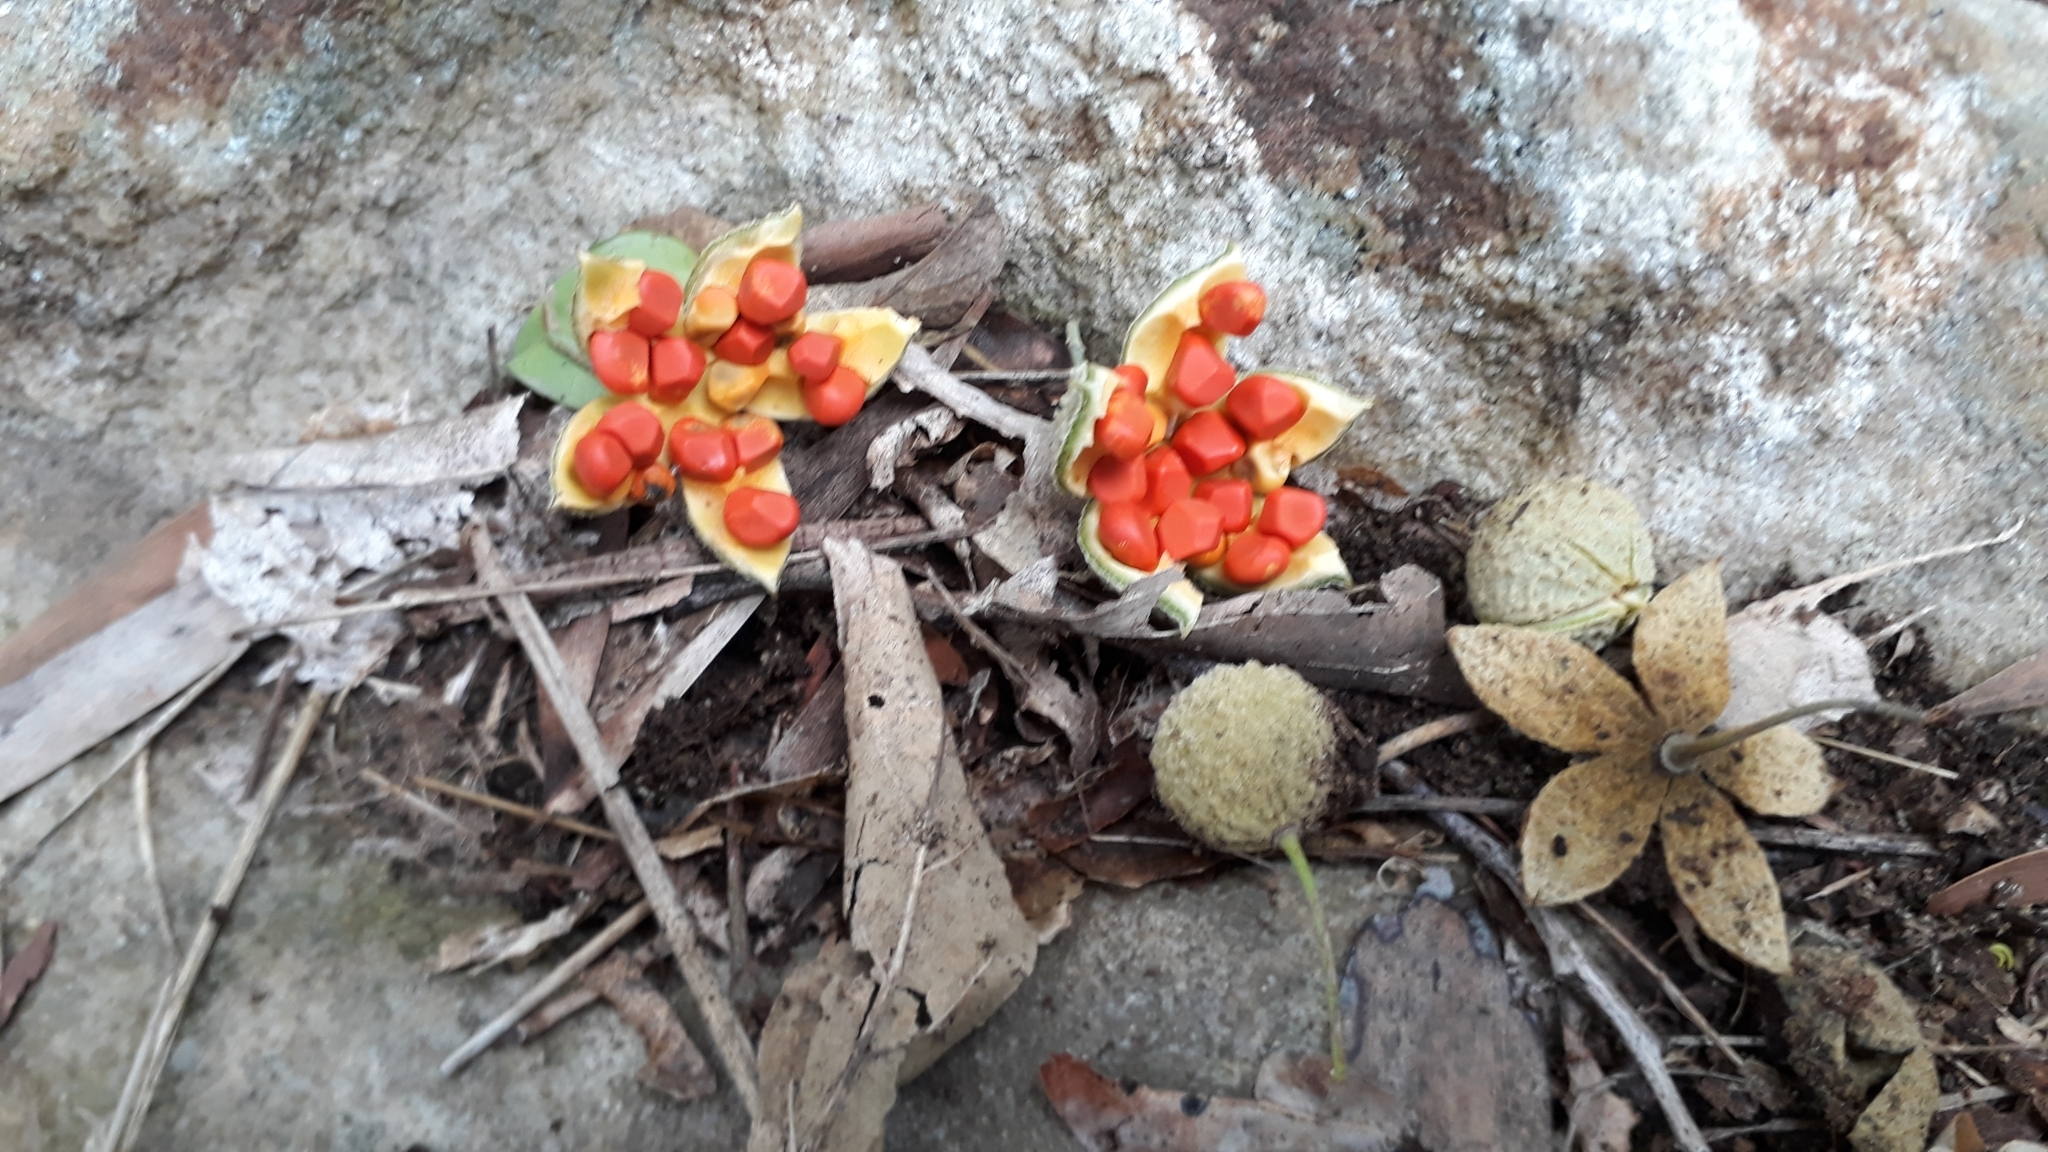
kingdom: Plantae
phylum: Tracheophyta
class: Magnoliopsida
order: Malpighiales
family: Achariaceae
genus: Kiggelaria
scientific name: Kiggelaria africana
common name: Wild peach
